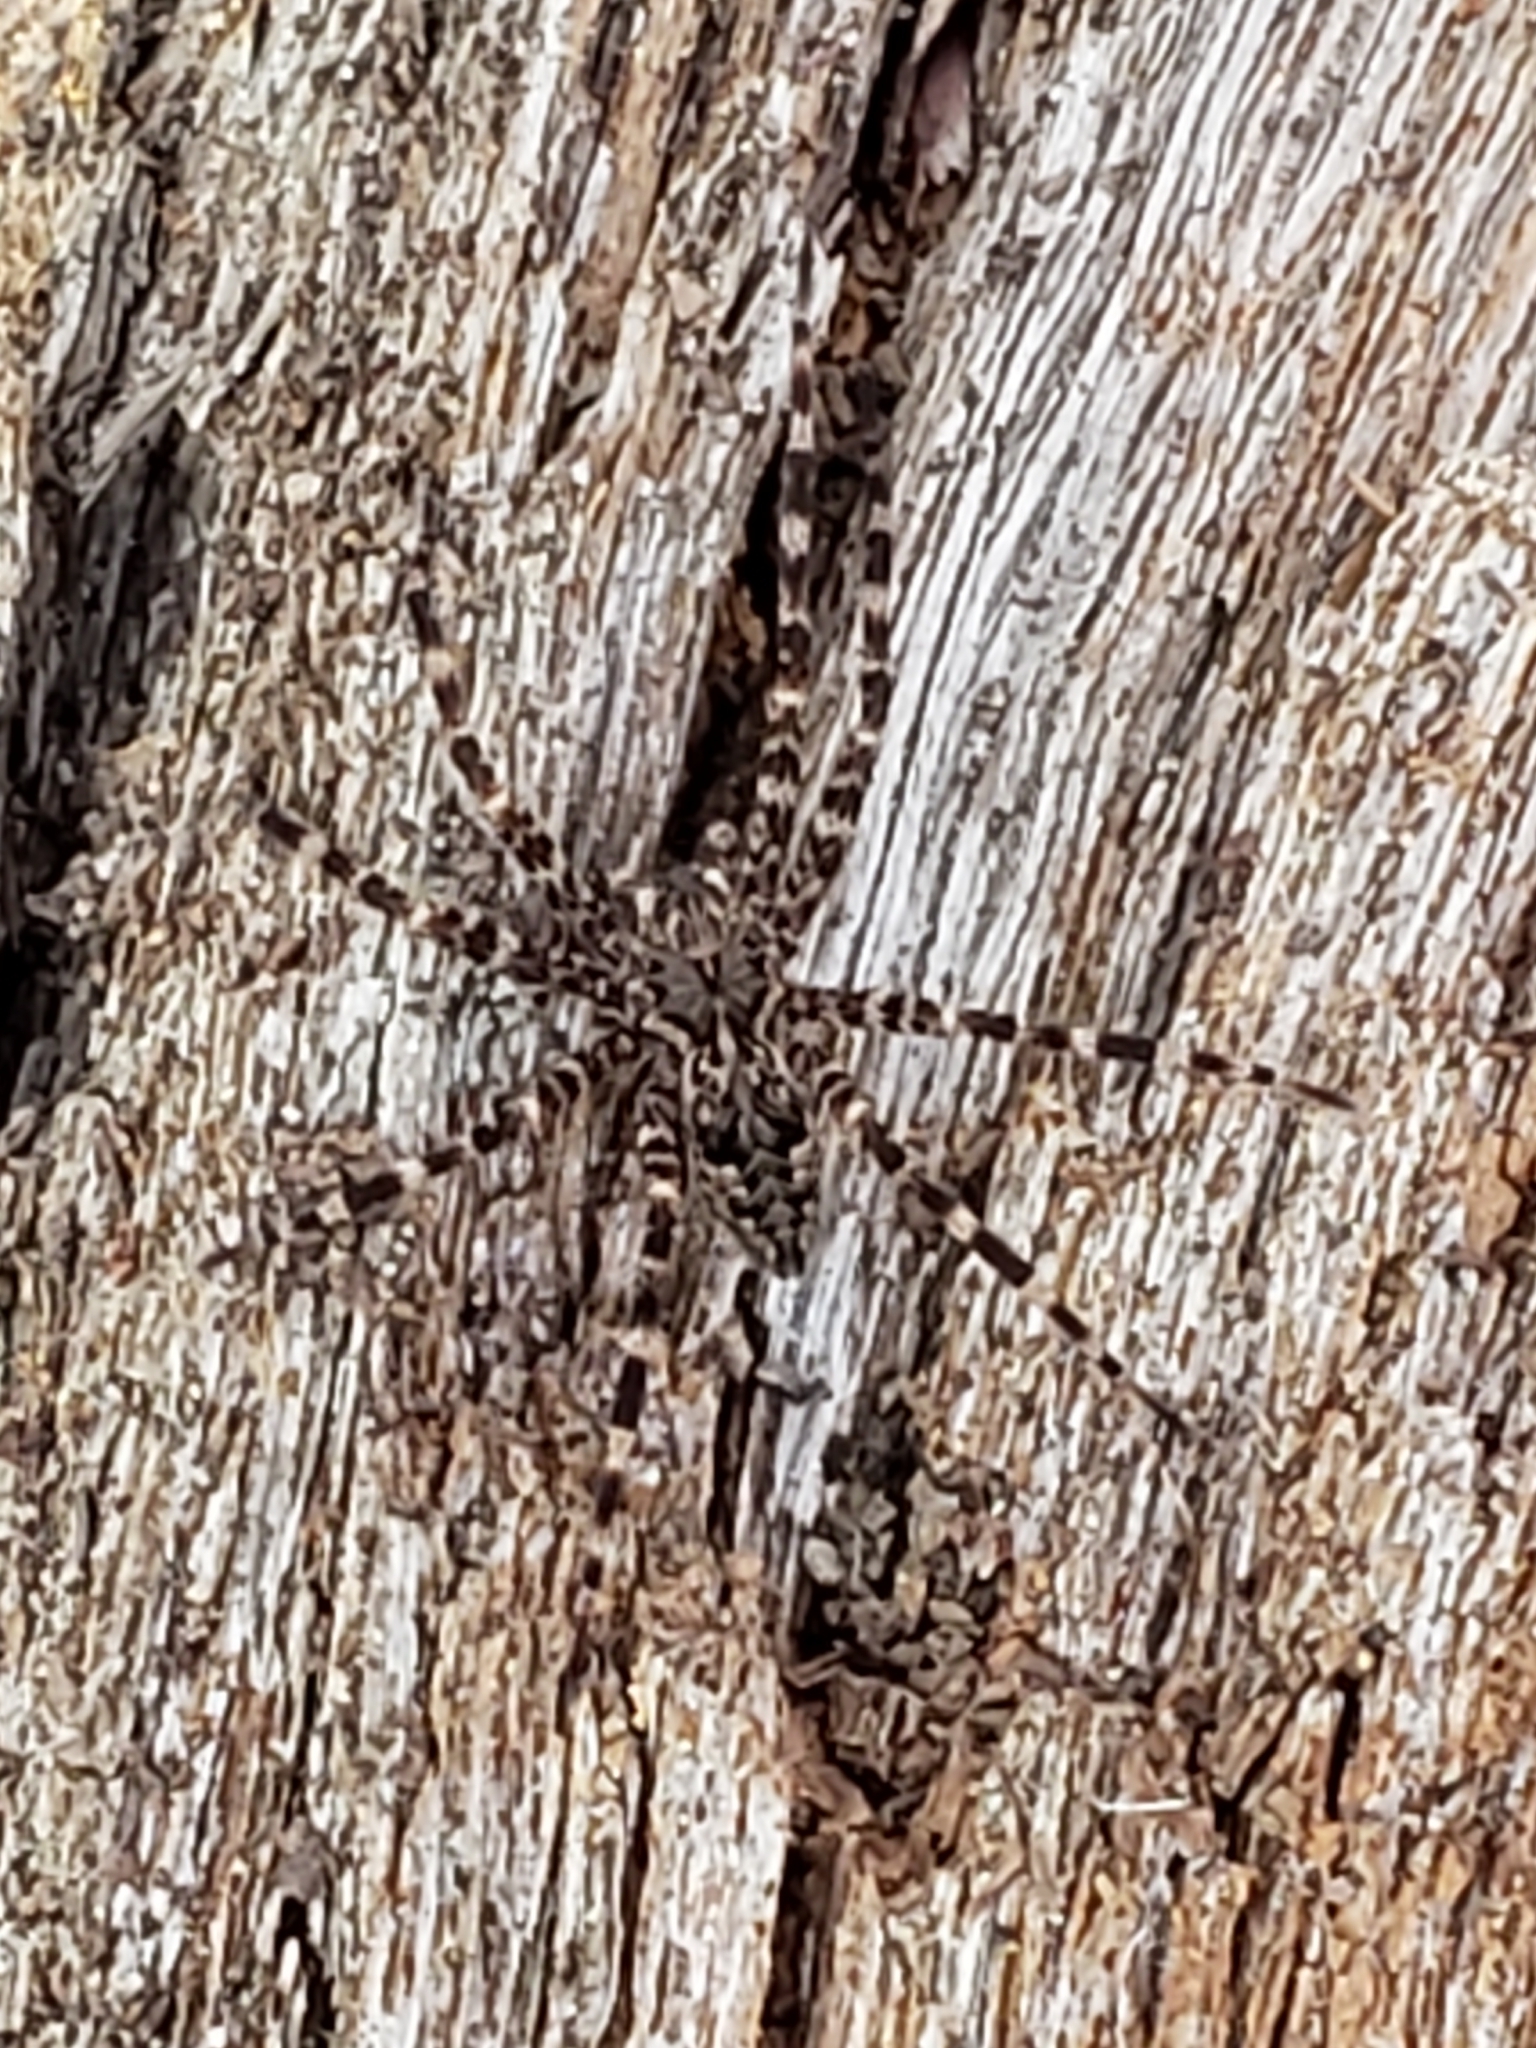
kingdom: Animalia
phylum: Arthropoda
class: Arachnida
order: Araneae
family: Pisauridae
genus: Dolomedes
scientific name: Dolomedes tenebrosus
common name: Dark fishing spider
